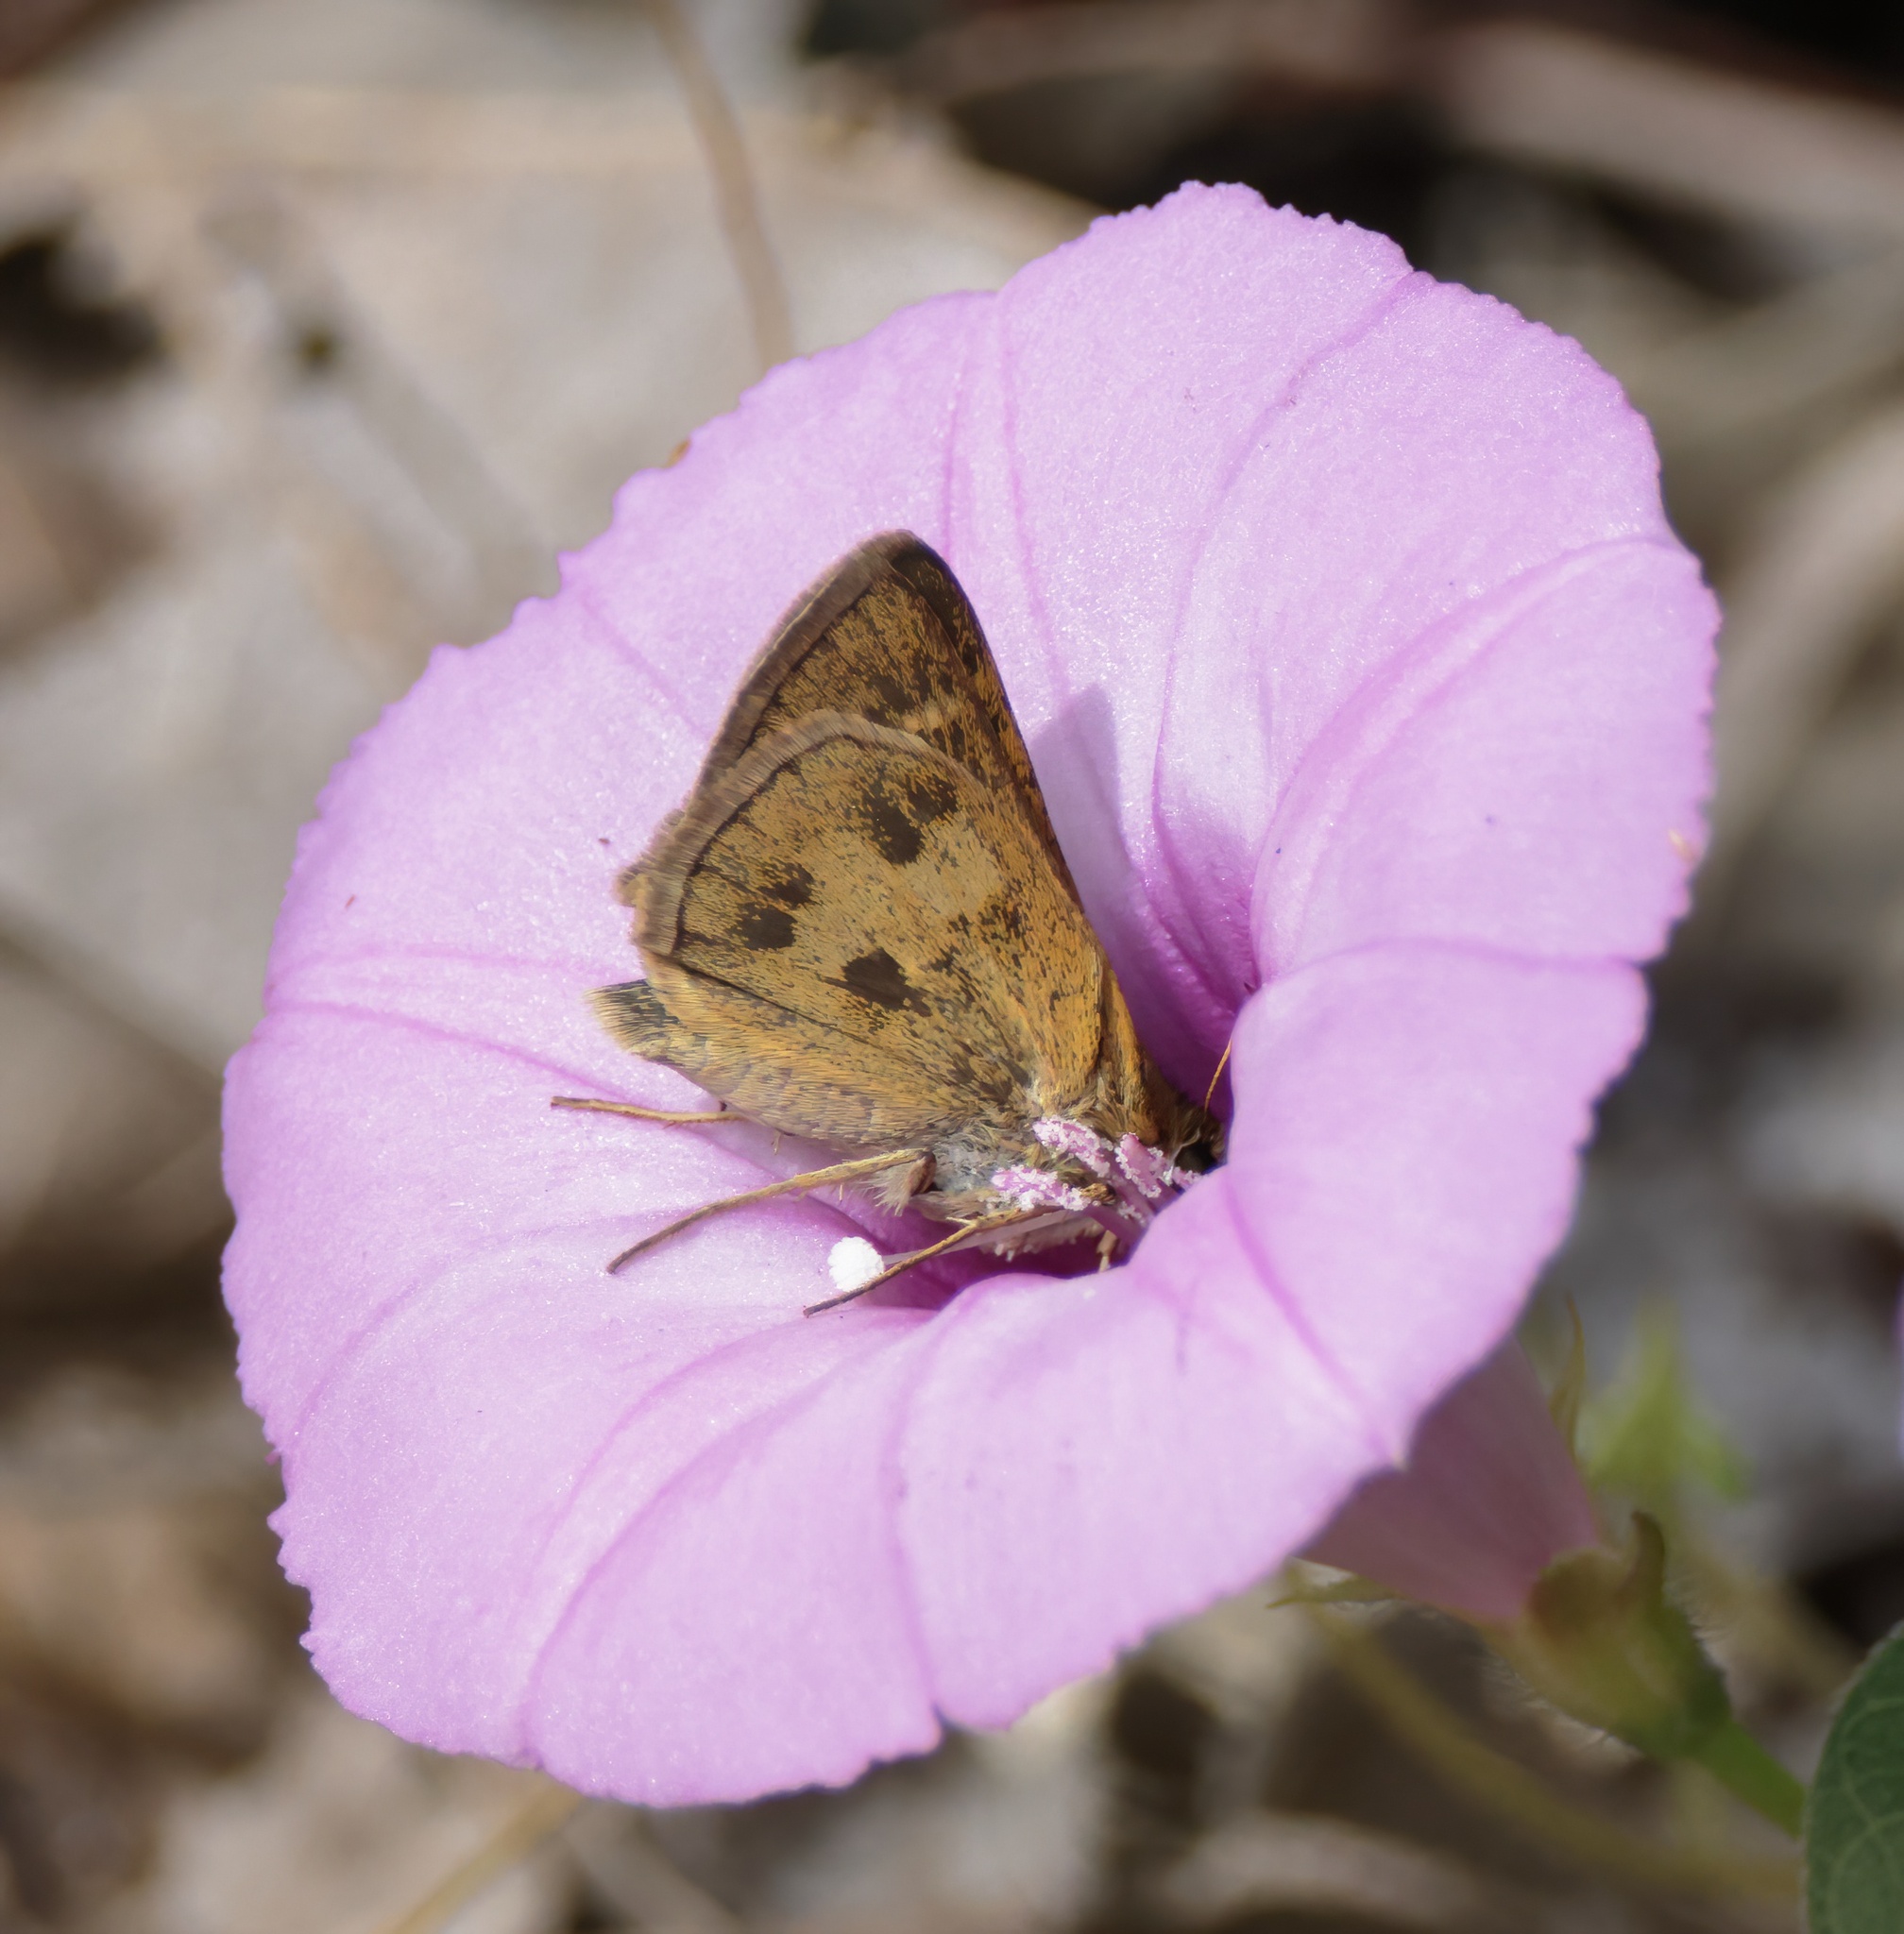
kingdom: Animalia
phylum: Arthropoda
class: Insecta
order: Lepidoptera
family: Hesperiidae
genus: Polites
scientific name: Polites vibex
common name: Whirlabout
